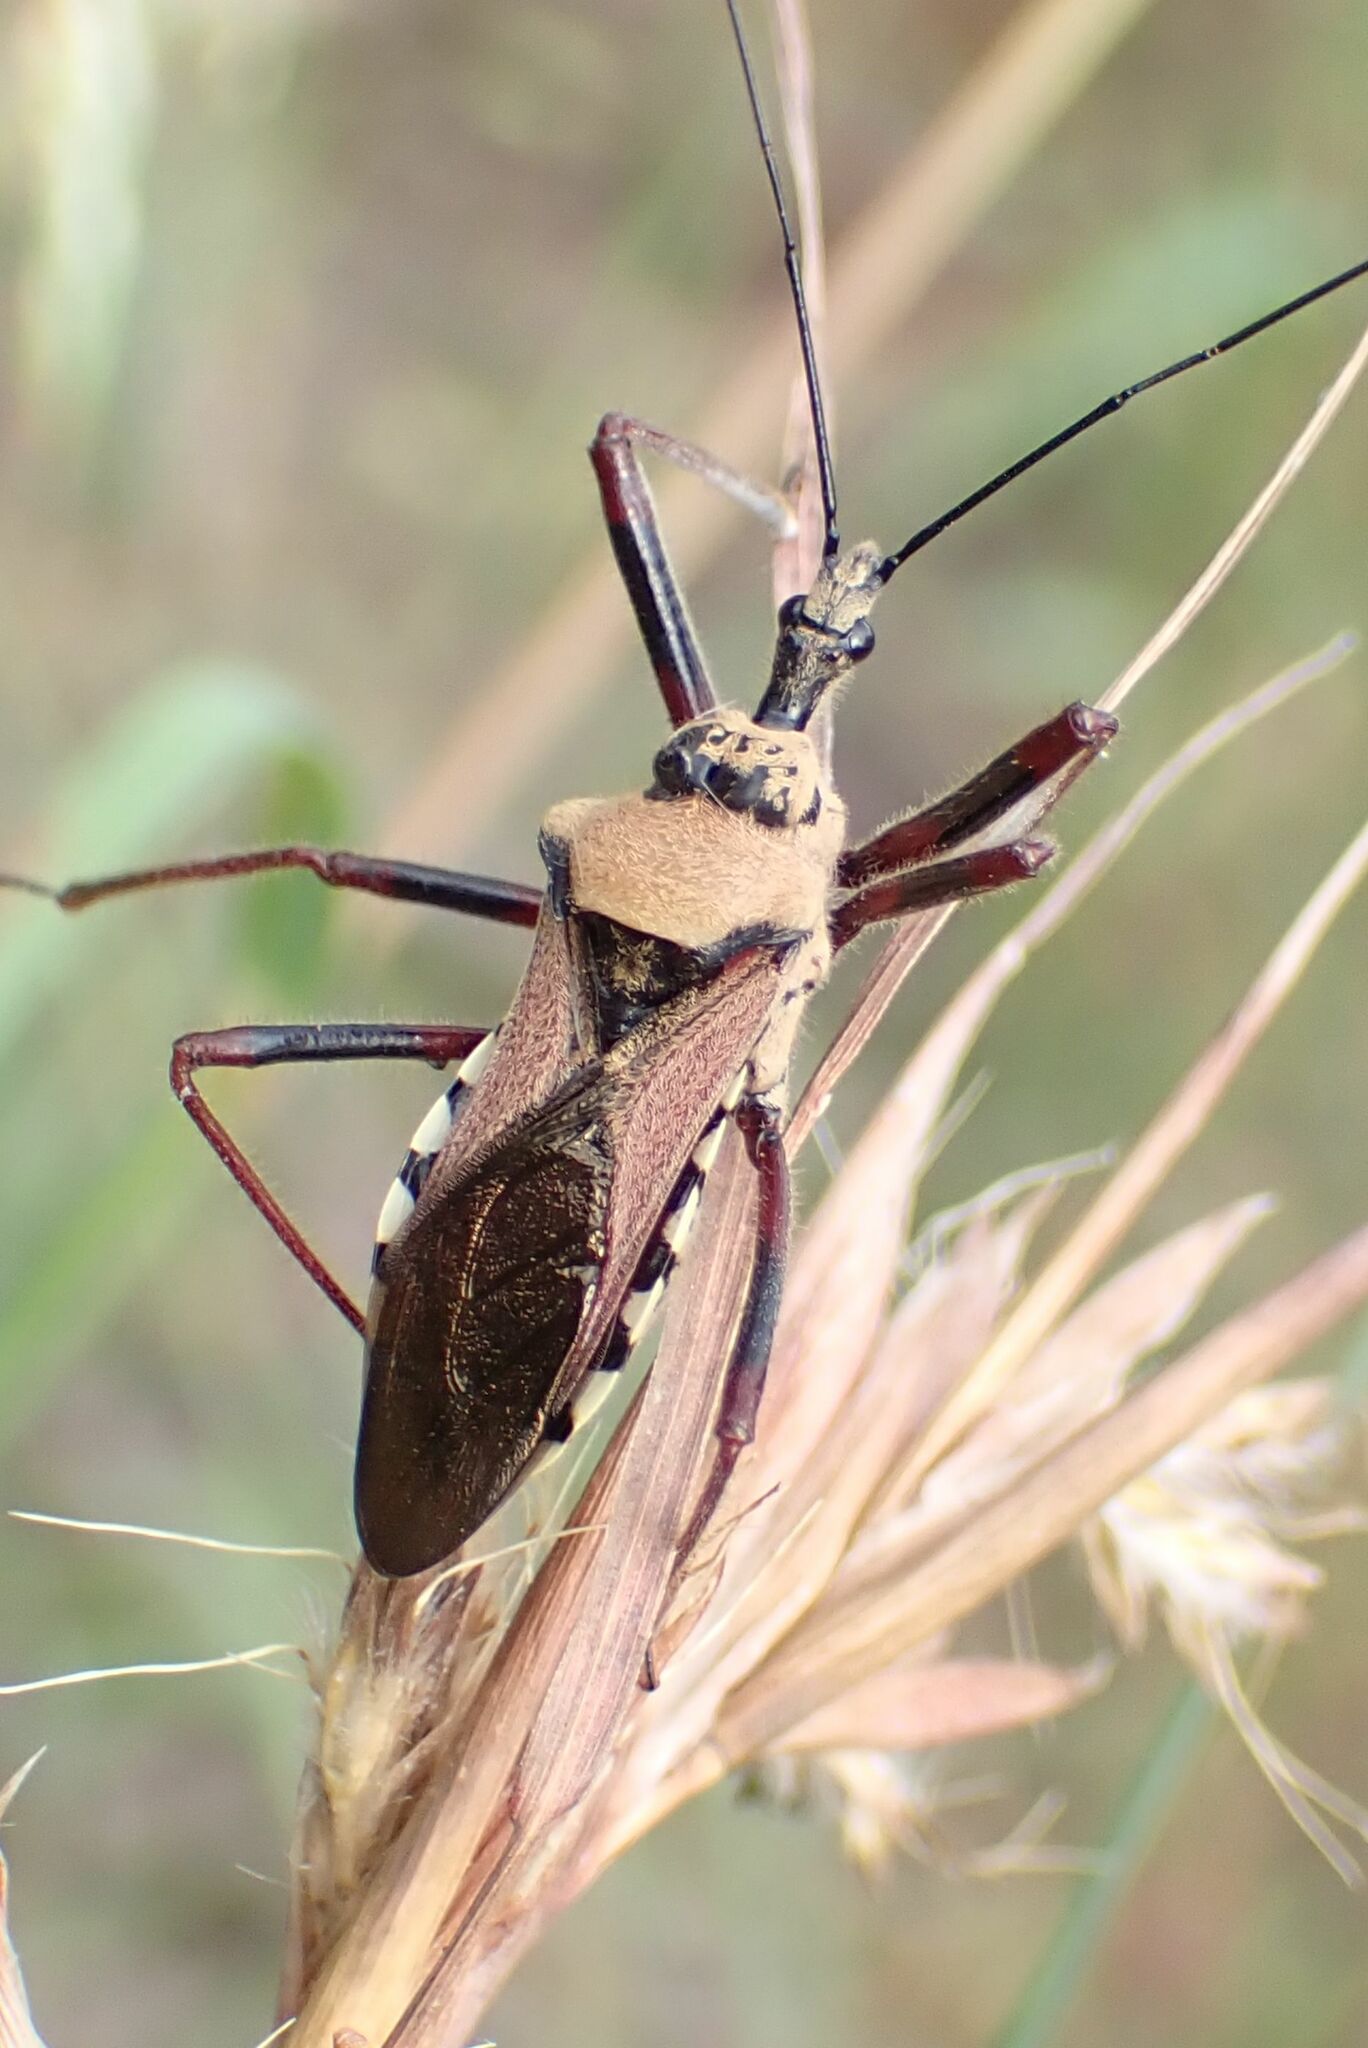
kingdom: Animalia
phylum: Arthropoda
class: Insecta
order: Hemiptera
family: Reduviidae
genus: Rhynocoris
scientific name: Rhynocoris neavei
